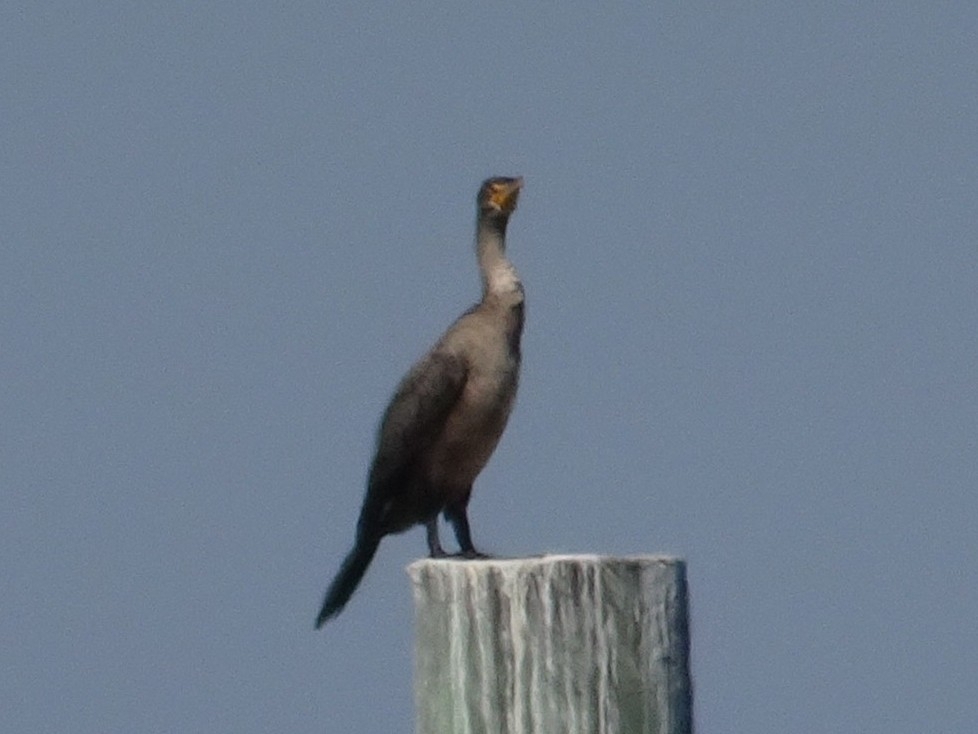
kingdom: Animalia
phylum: Chordata
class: Aves
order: Suliformes
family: Phalacrocoracidae
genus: Phalacrocorax
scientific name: Phalacrocorax auritus
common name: Double-crested cormorant
